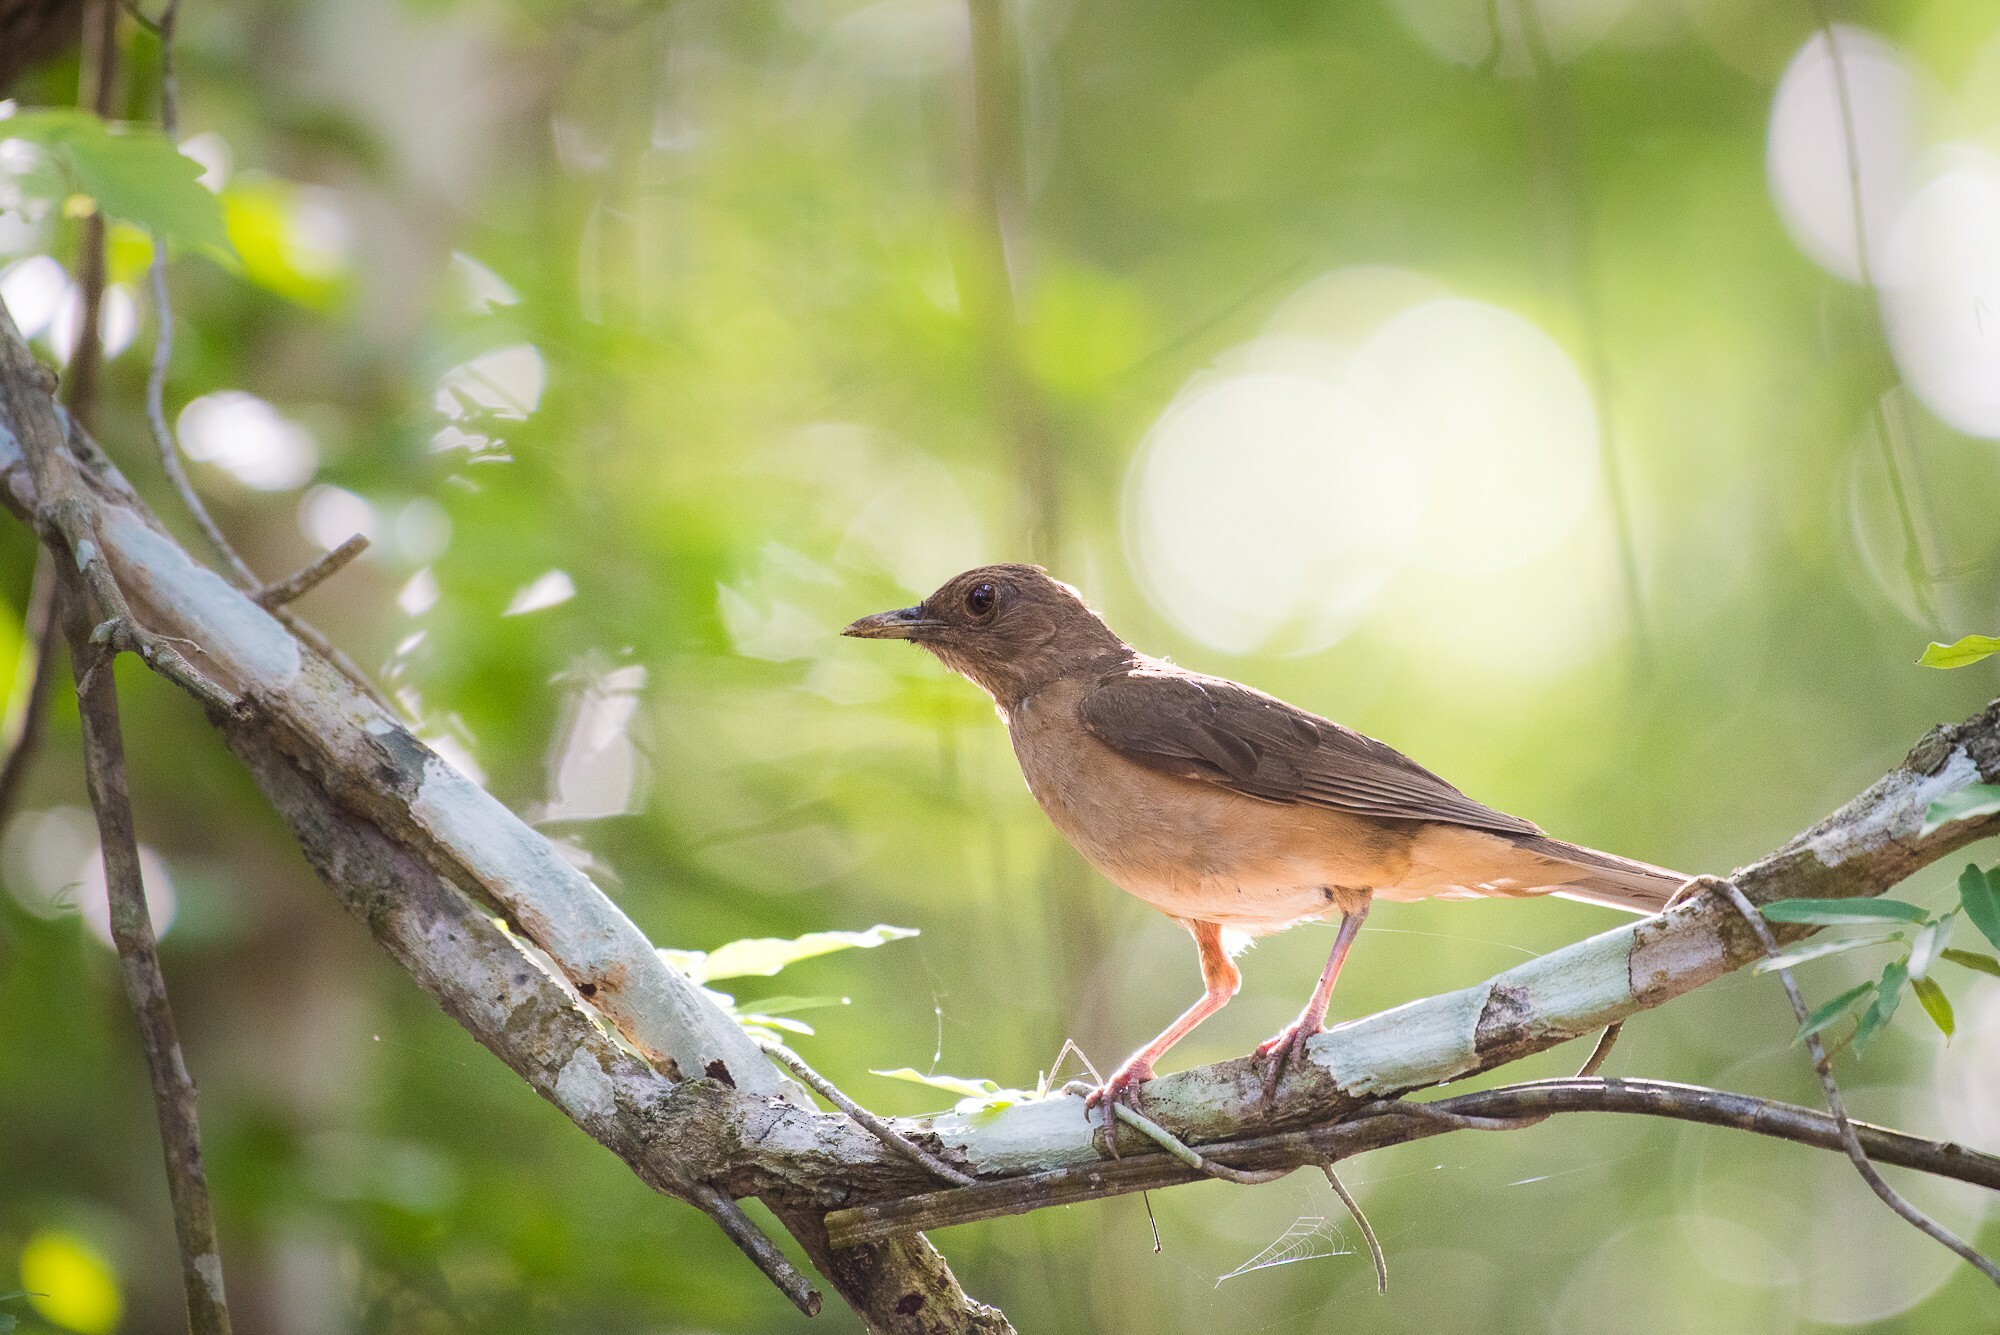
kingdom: Animalia
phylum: Chordata
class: Aves
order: Passeriformes
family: Turdidae
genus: Turdus
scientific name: Turdus grayi
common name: Clay-colored thrush
